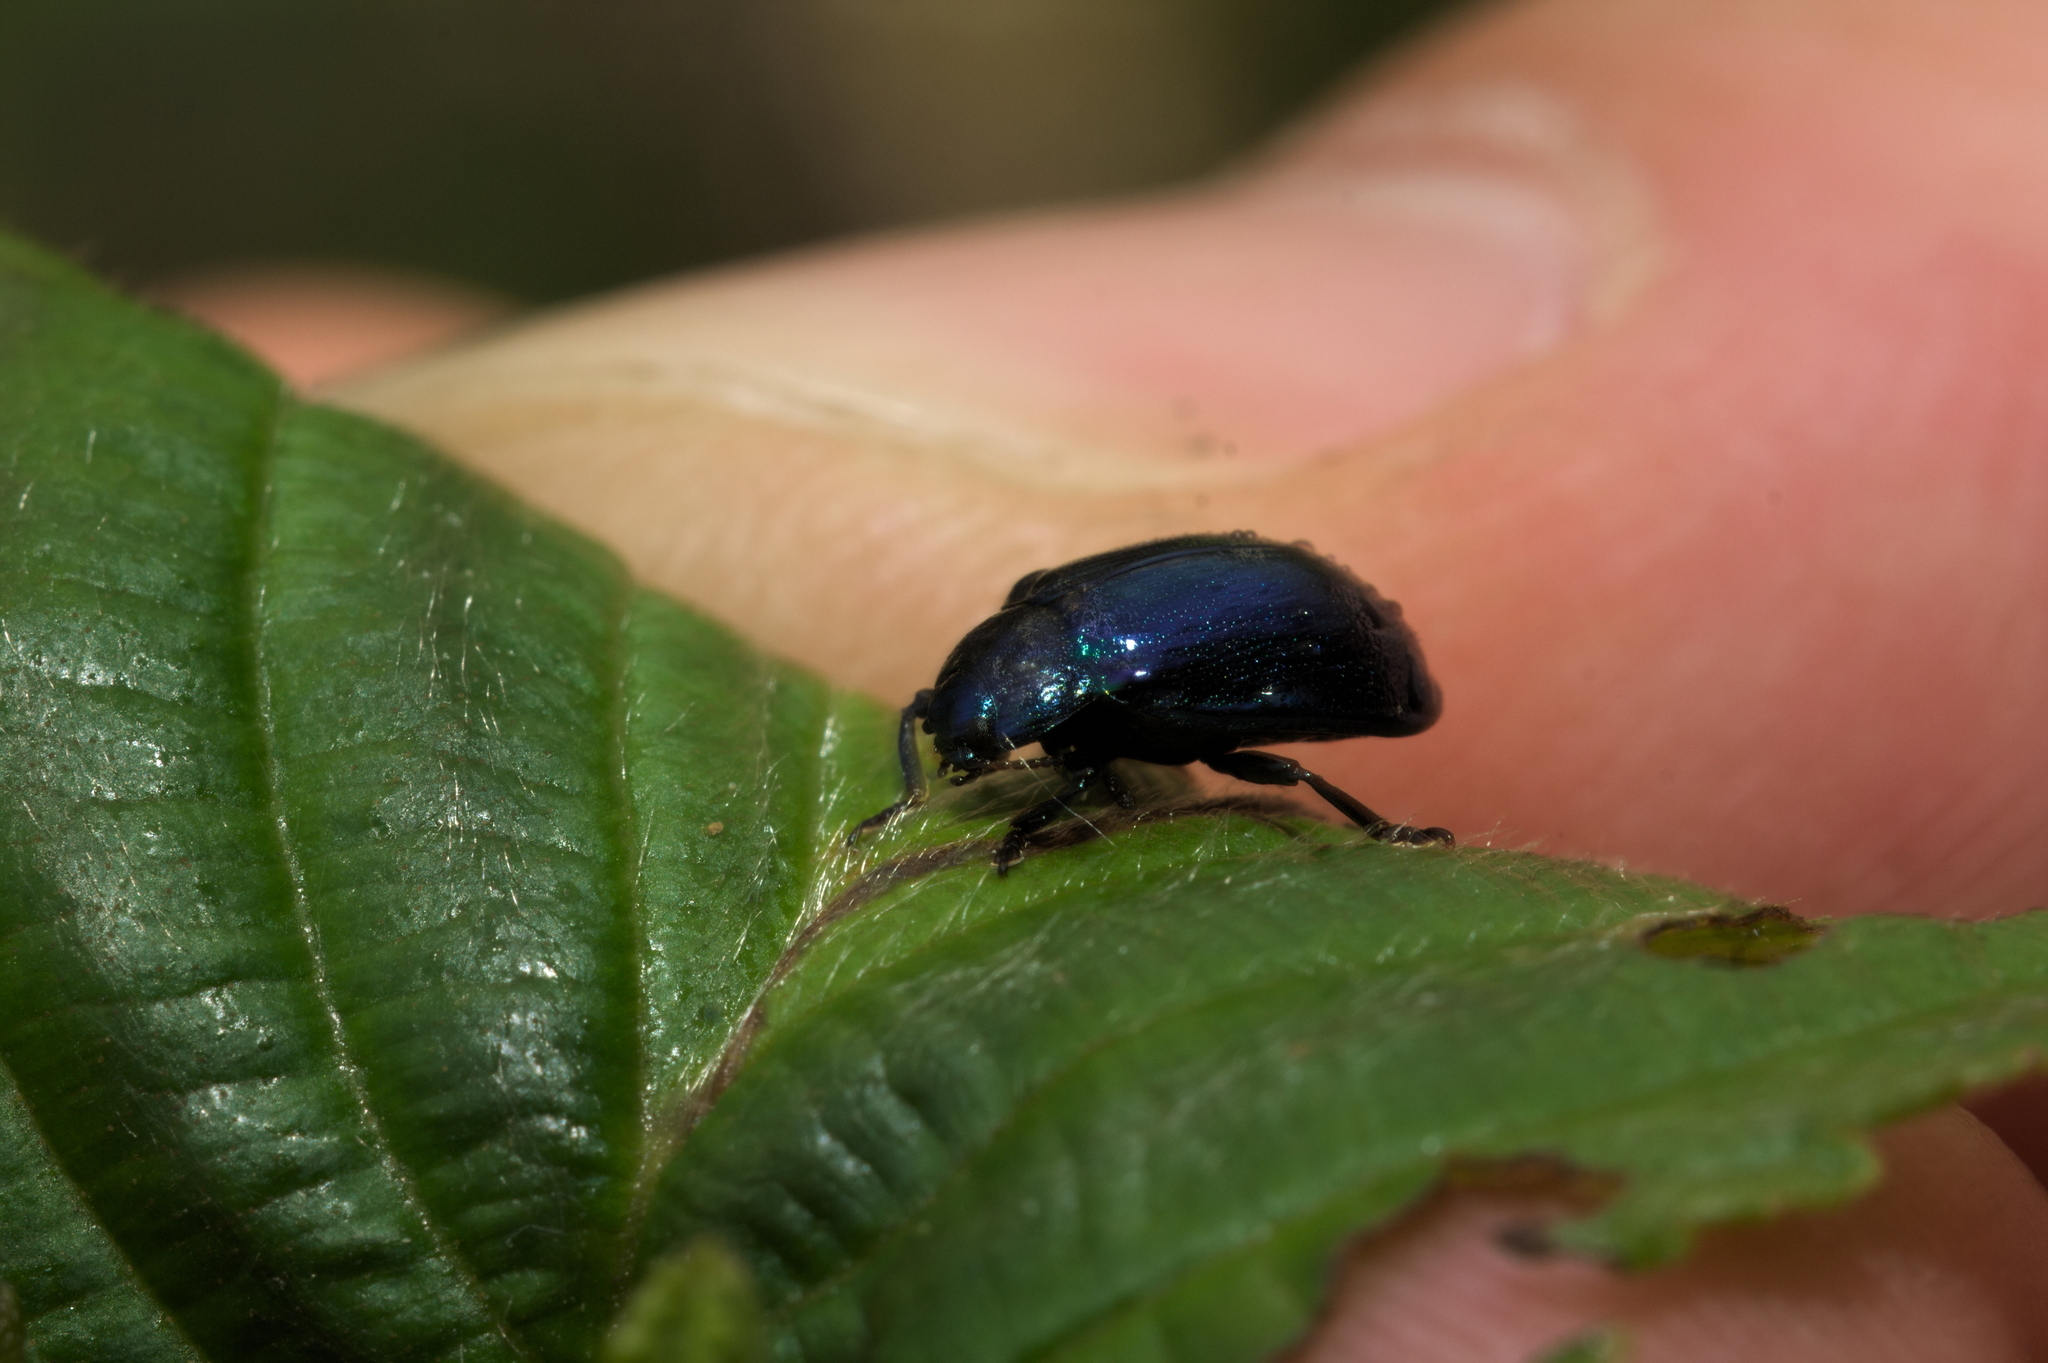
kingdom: Animalia
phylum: Arthropoda
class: Insecta
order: Coleoptera
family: Chrysomelidae
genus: Plagiosterna
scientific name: Plagiosterna aenea
